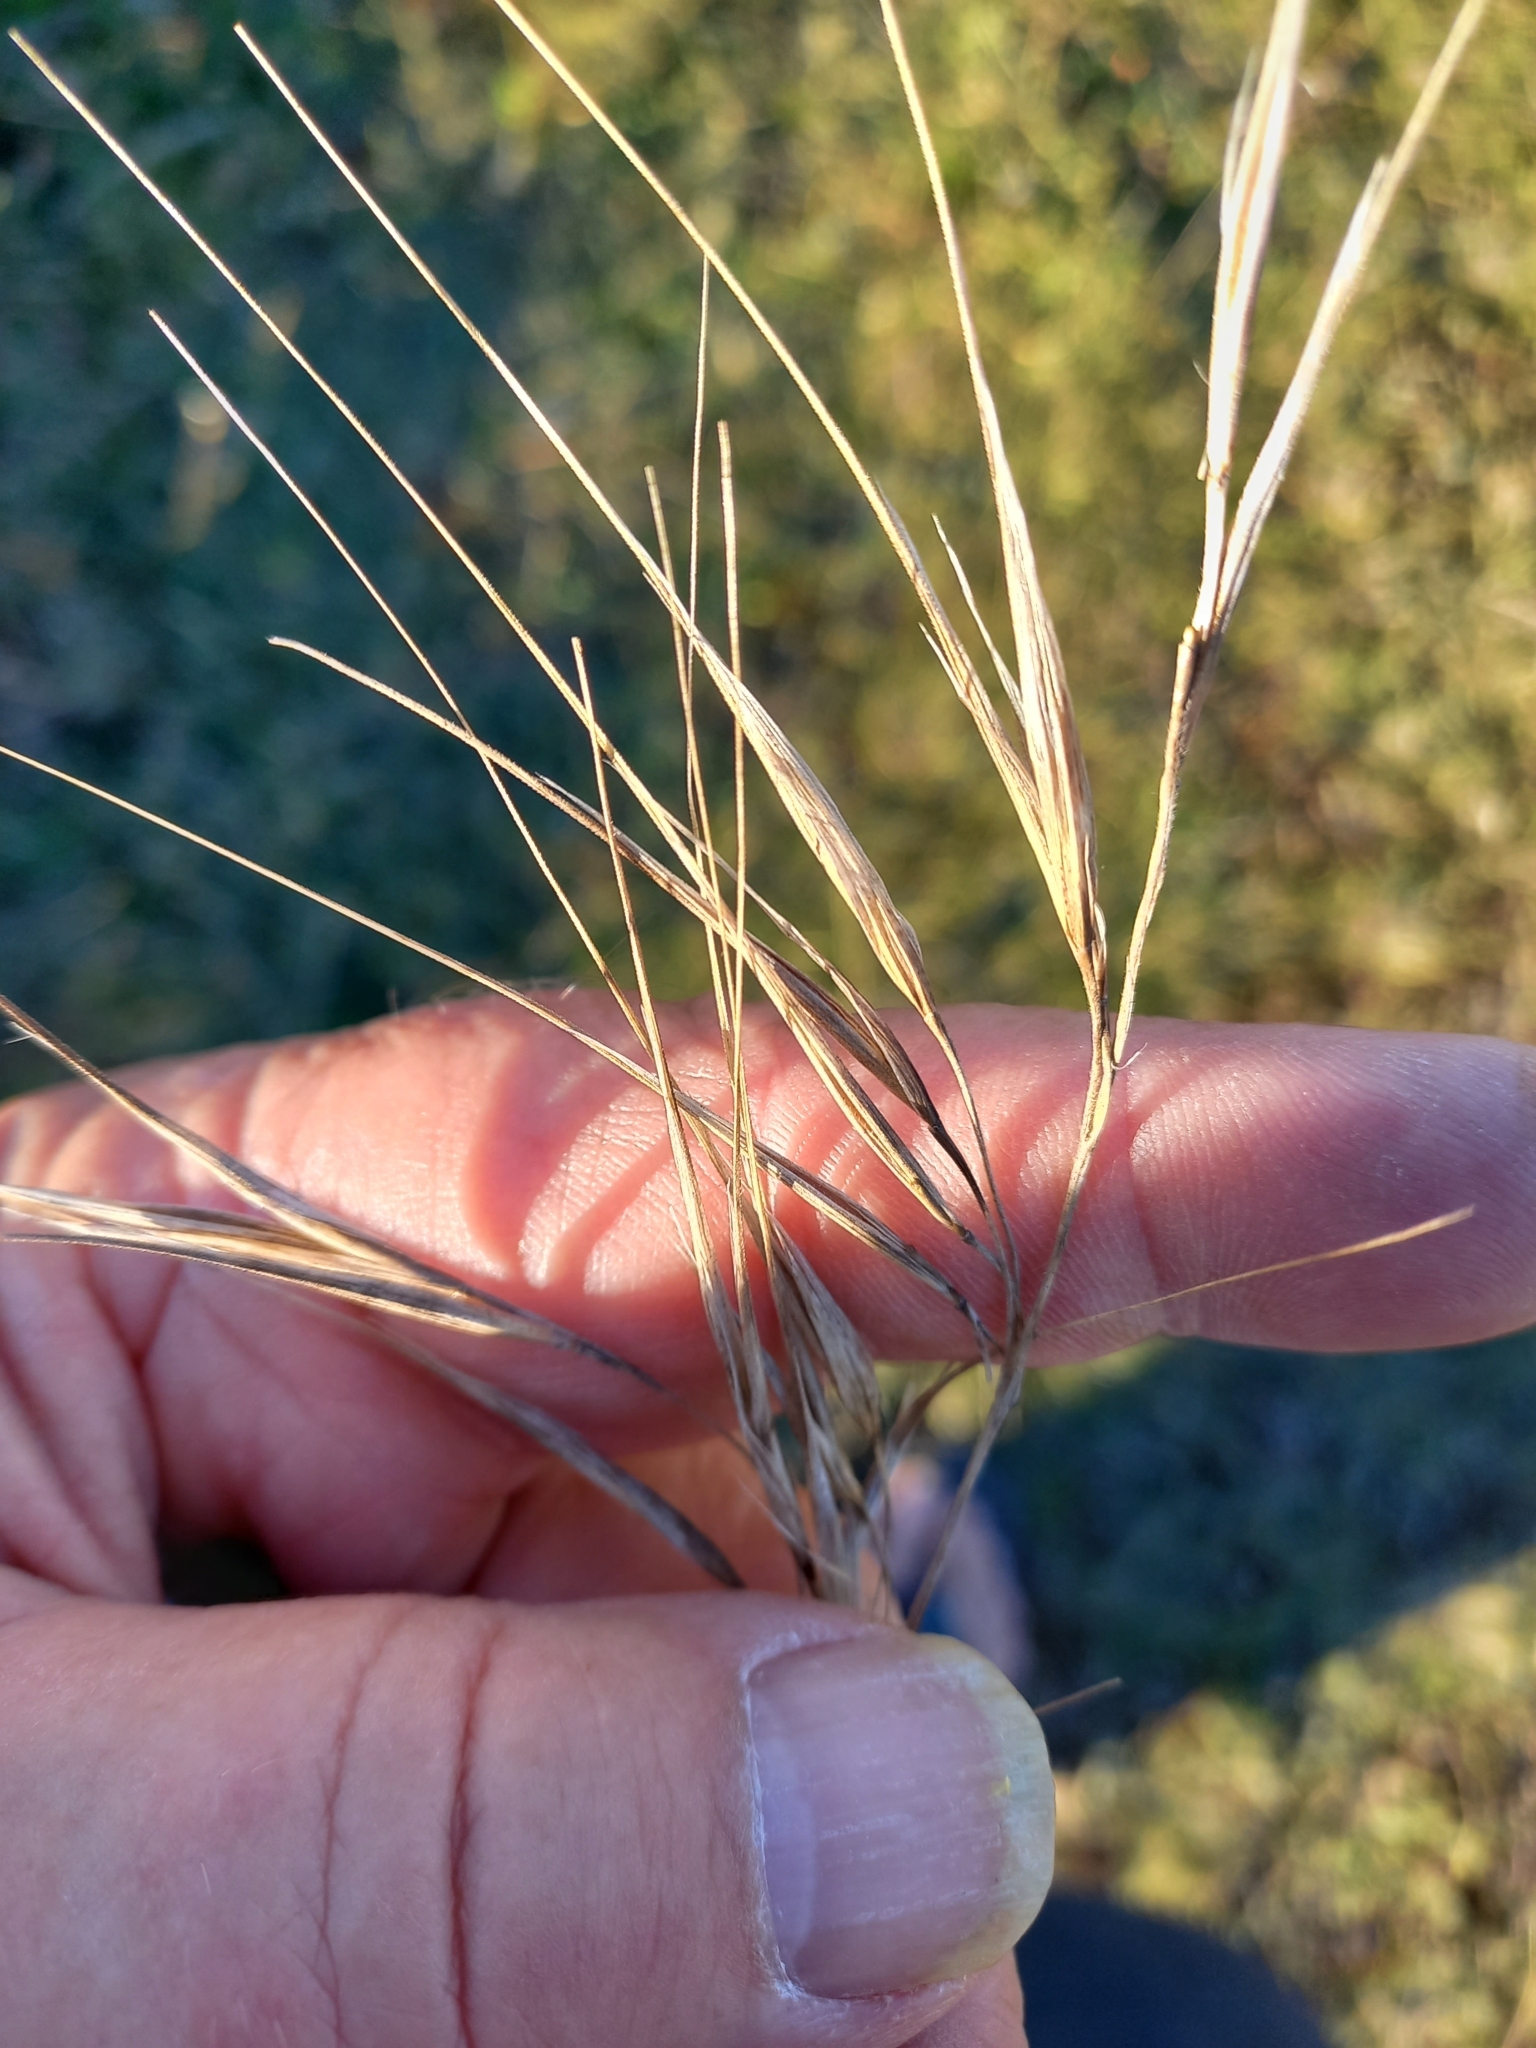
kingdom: Plantae
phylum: Tracheophyta
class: Liliopsida
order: Poales
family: Poaceae
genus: Bromus
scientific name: Bromus diandrus
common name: Ripgut brome
